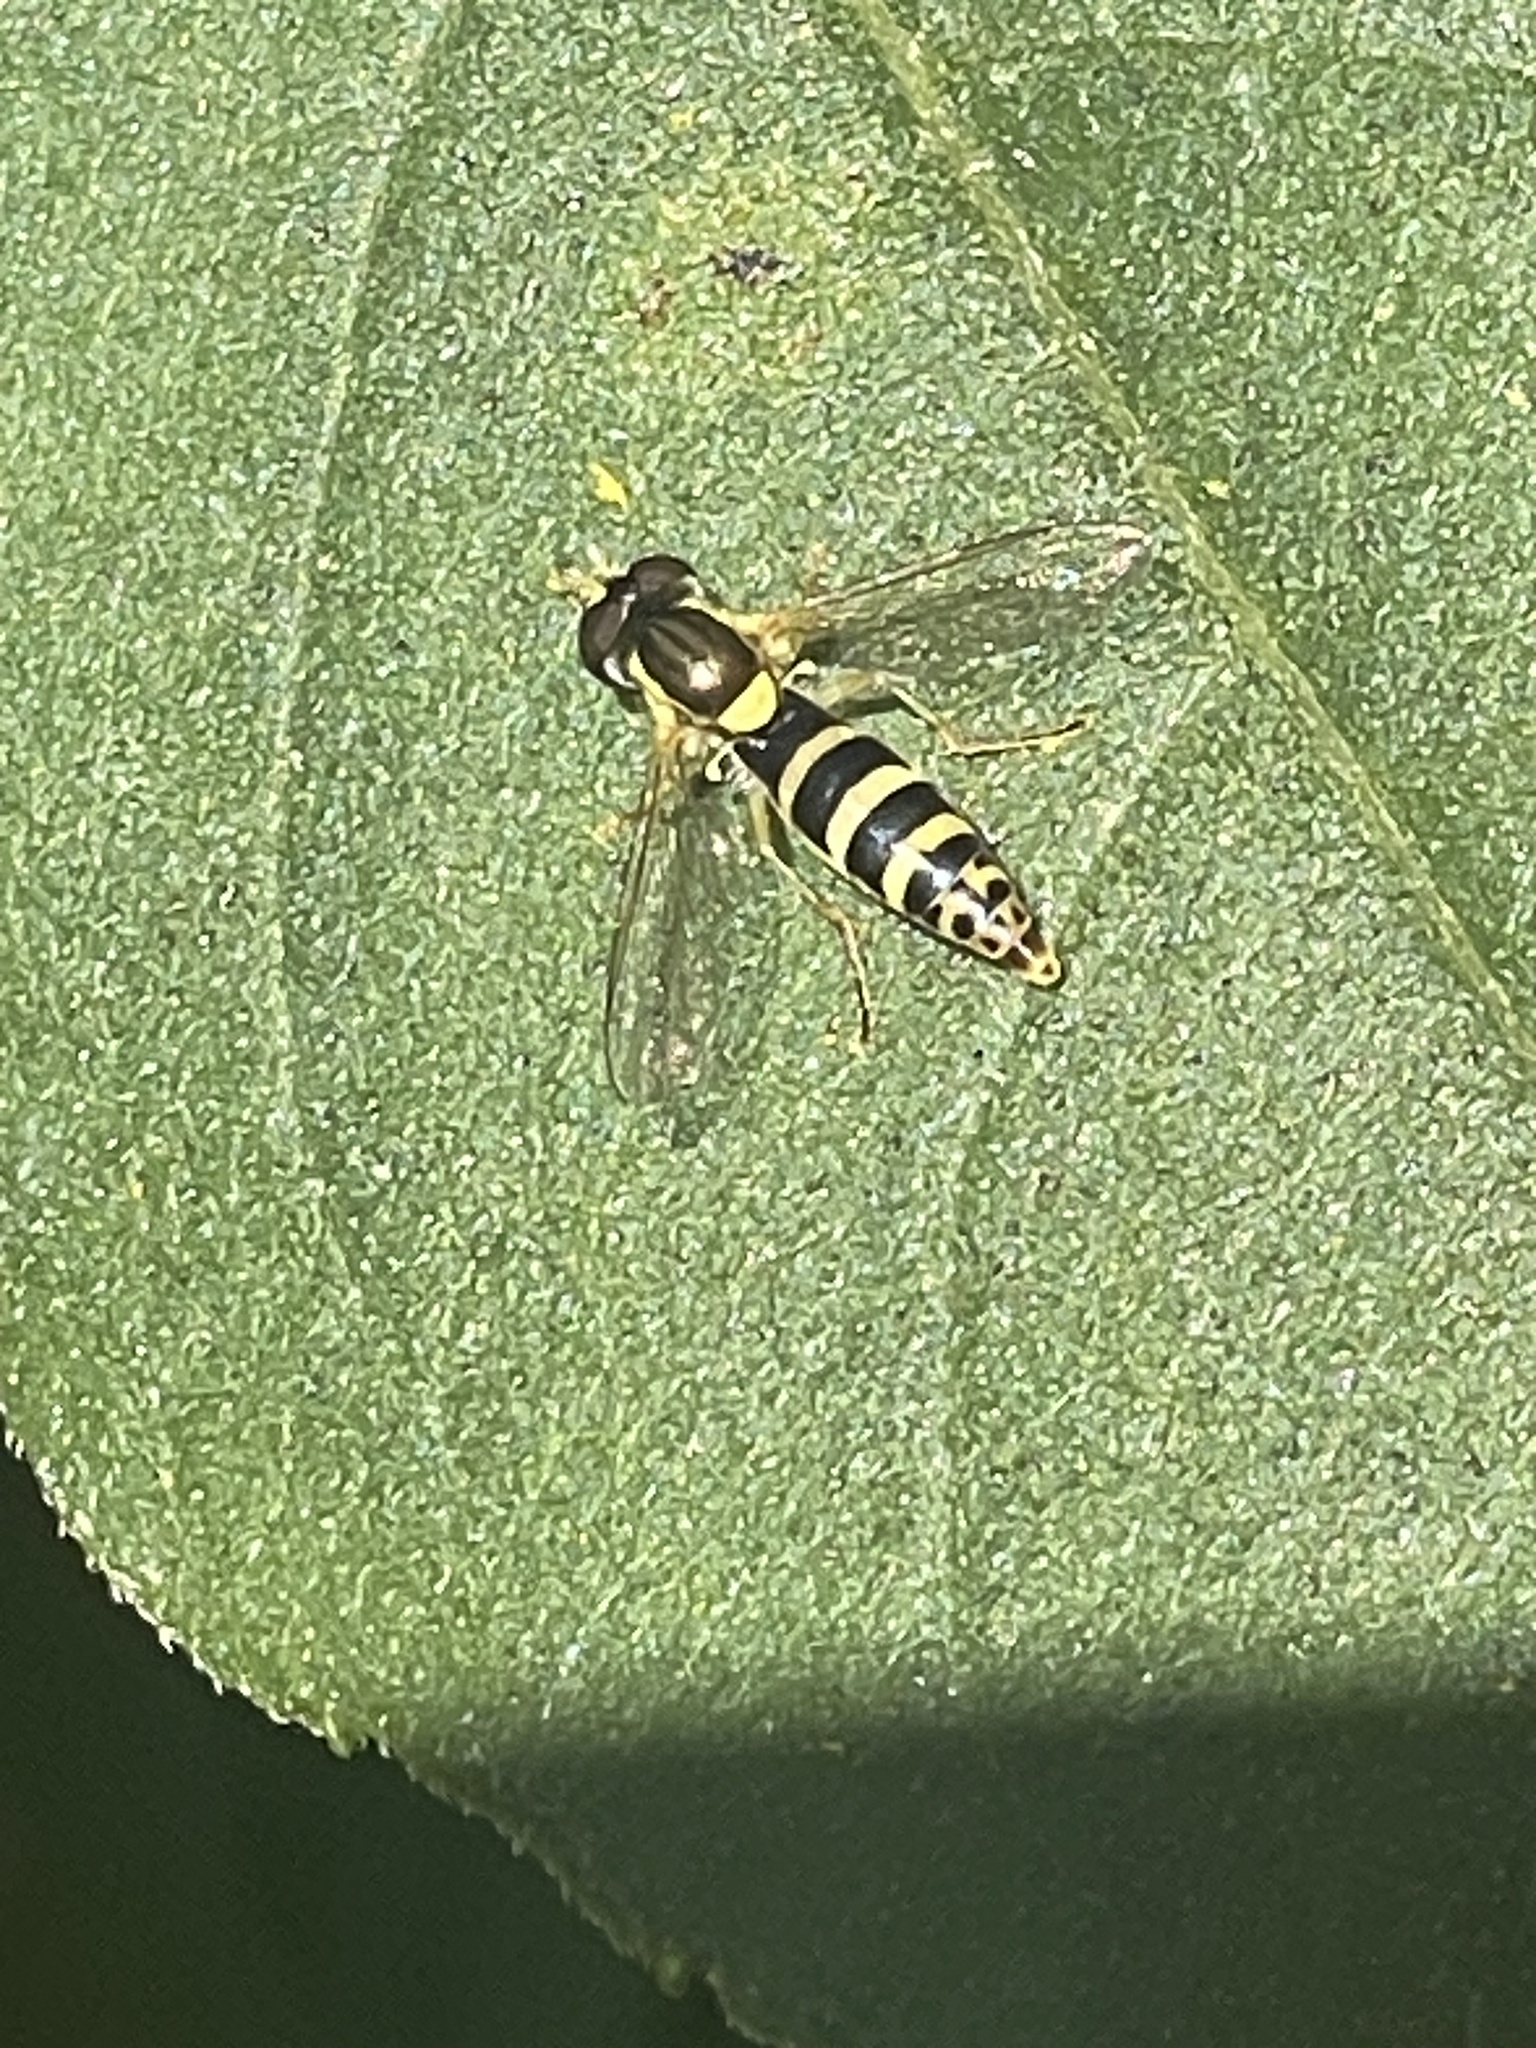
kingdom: Animalia
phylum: Arthropoda
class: Insecta
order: Diptera
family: Syrphidae
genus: Sphaerophoria
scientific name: Sphaerophoria
